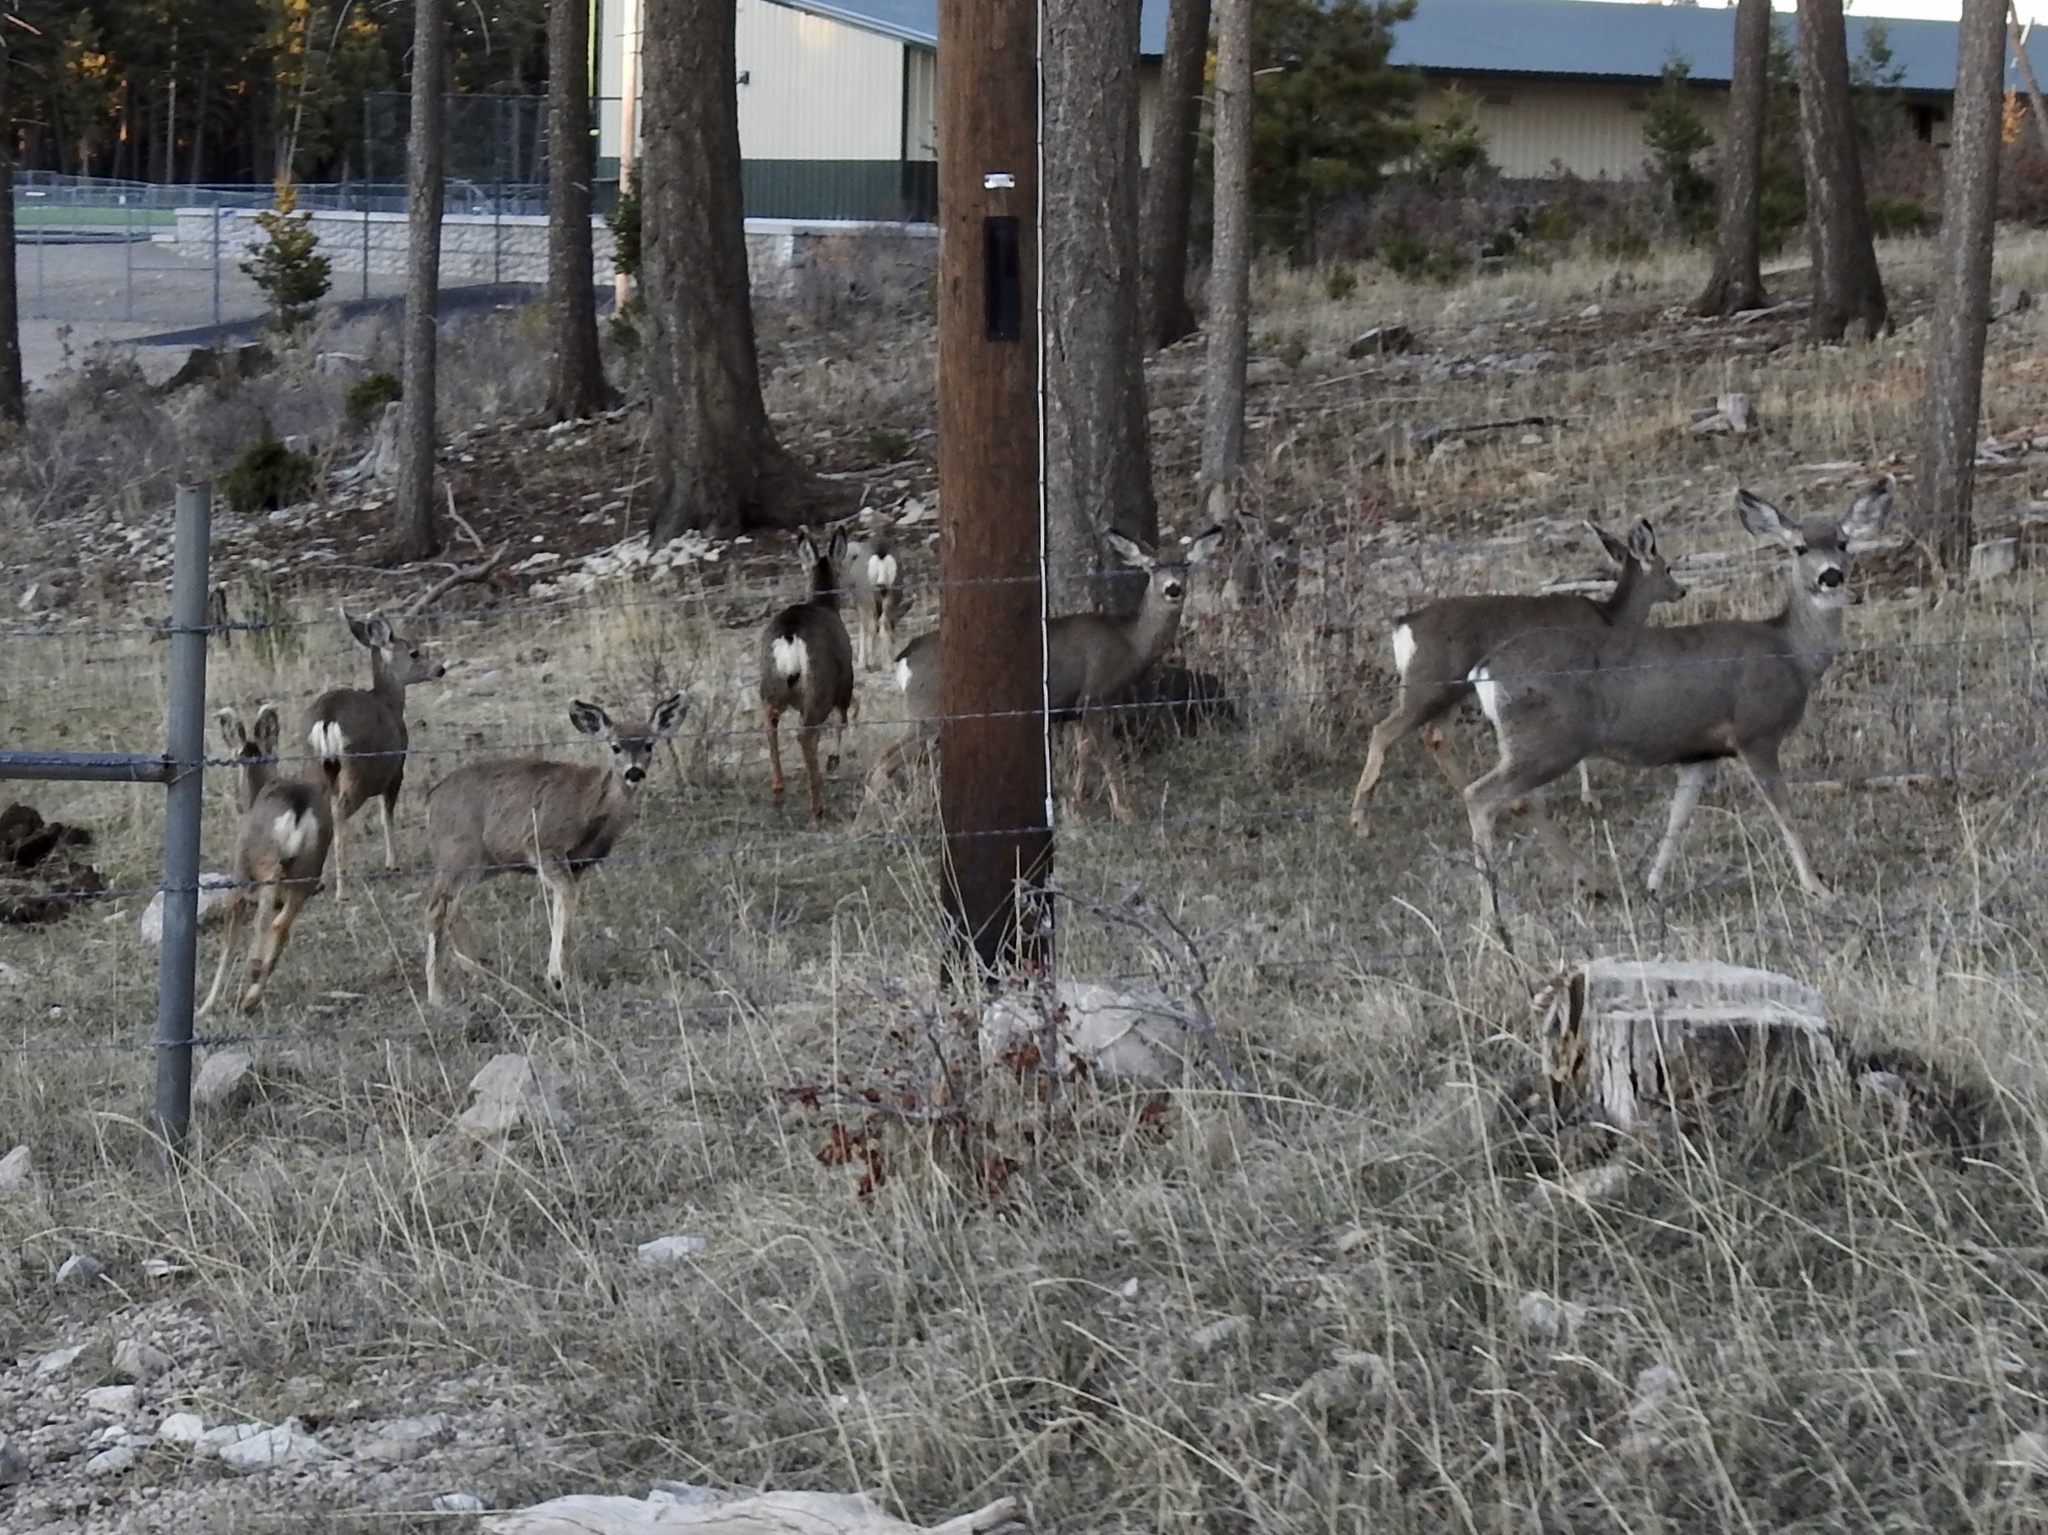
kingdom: Animalia
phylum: Chordata
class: Mammalia
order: Artiodactyla
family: Cervidae
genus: Odocoileus
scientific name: Odocoileus hemionus
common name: Mule deer
